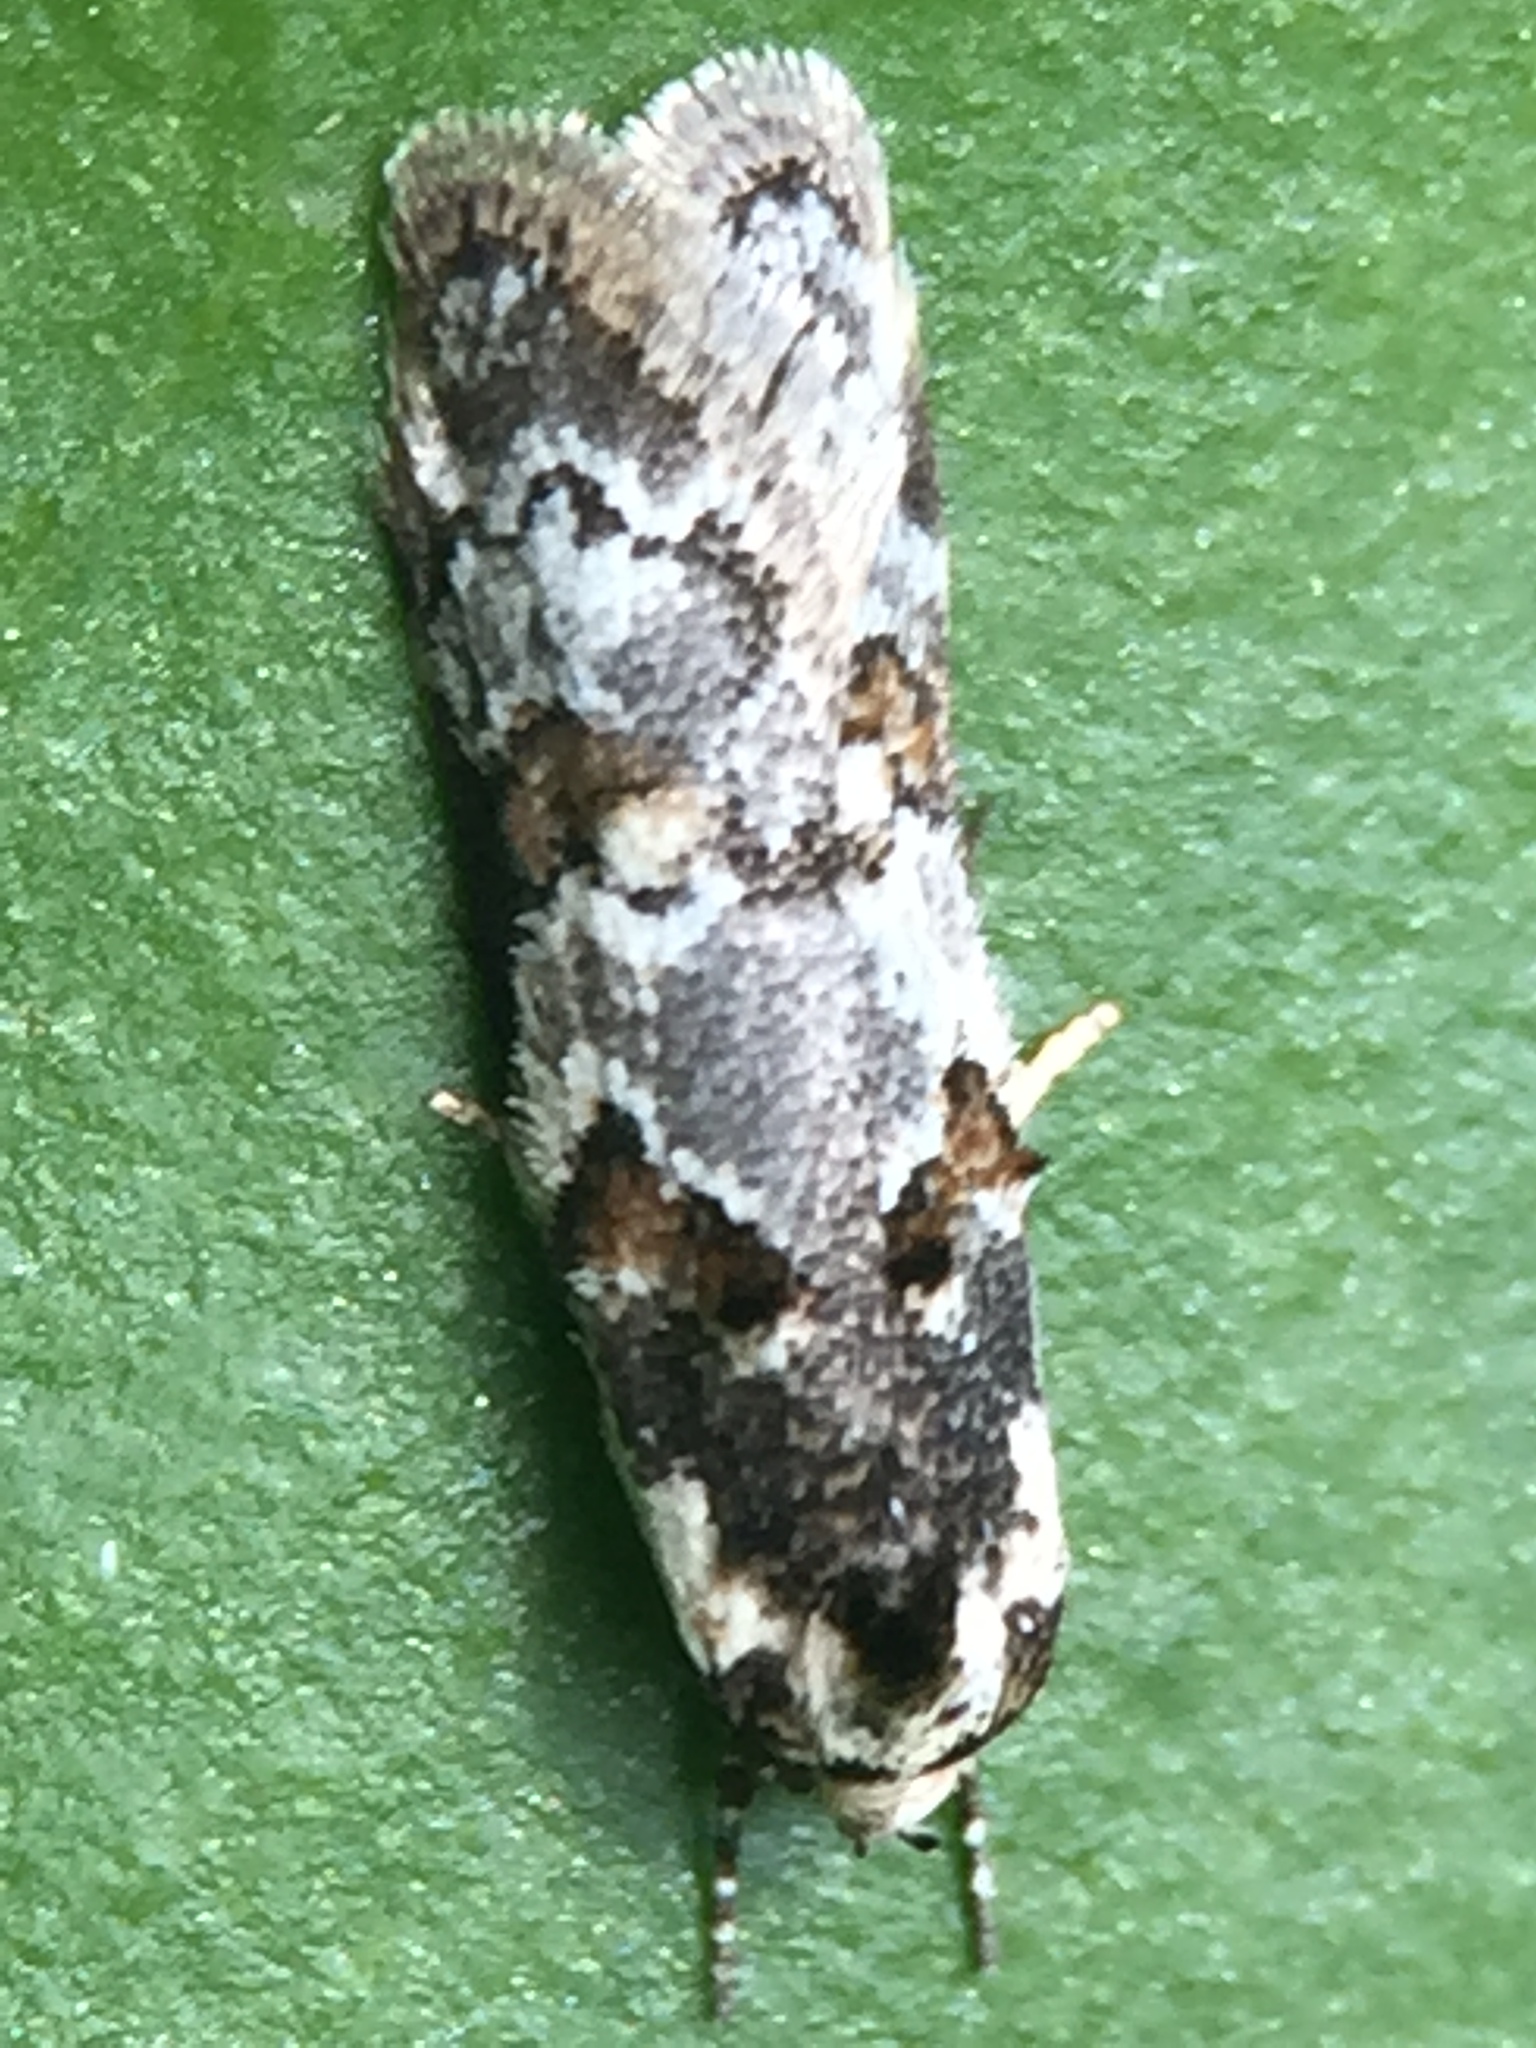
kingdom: Animalia
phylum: Arthropoda
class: Insecta
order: Lepidoptera
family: Oecophoridae
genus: Trachypepla
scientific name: Trachypepla galaxias
